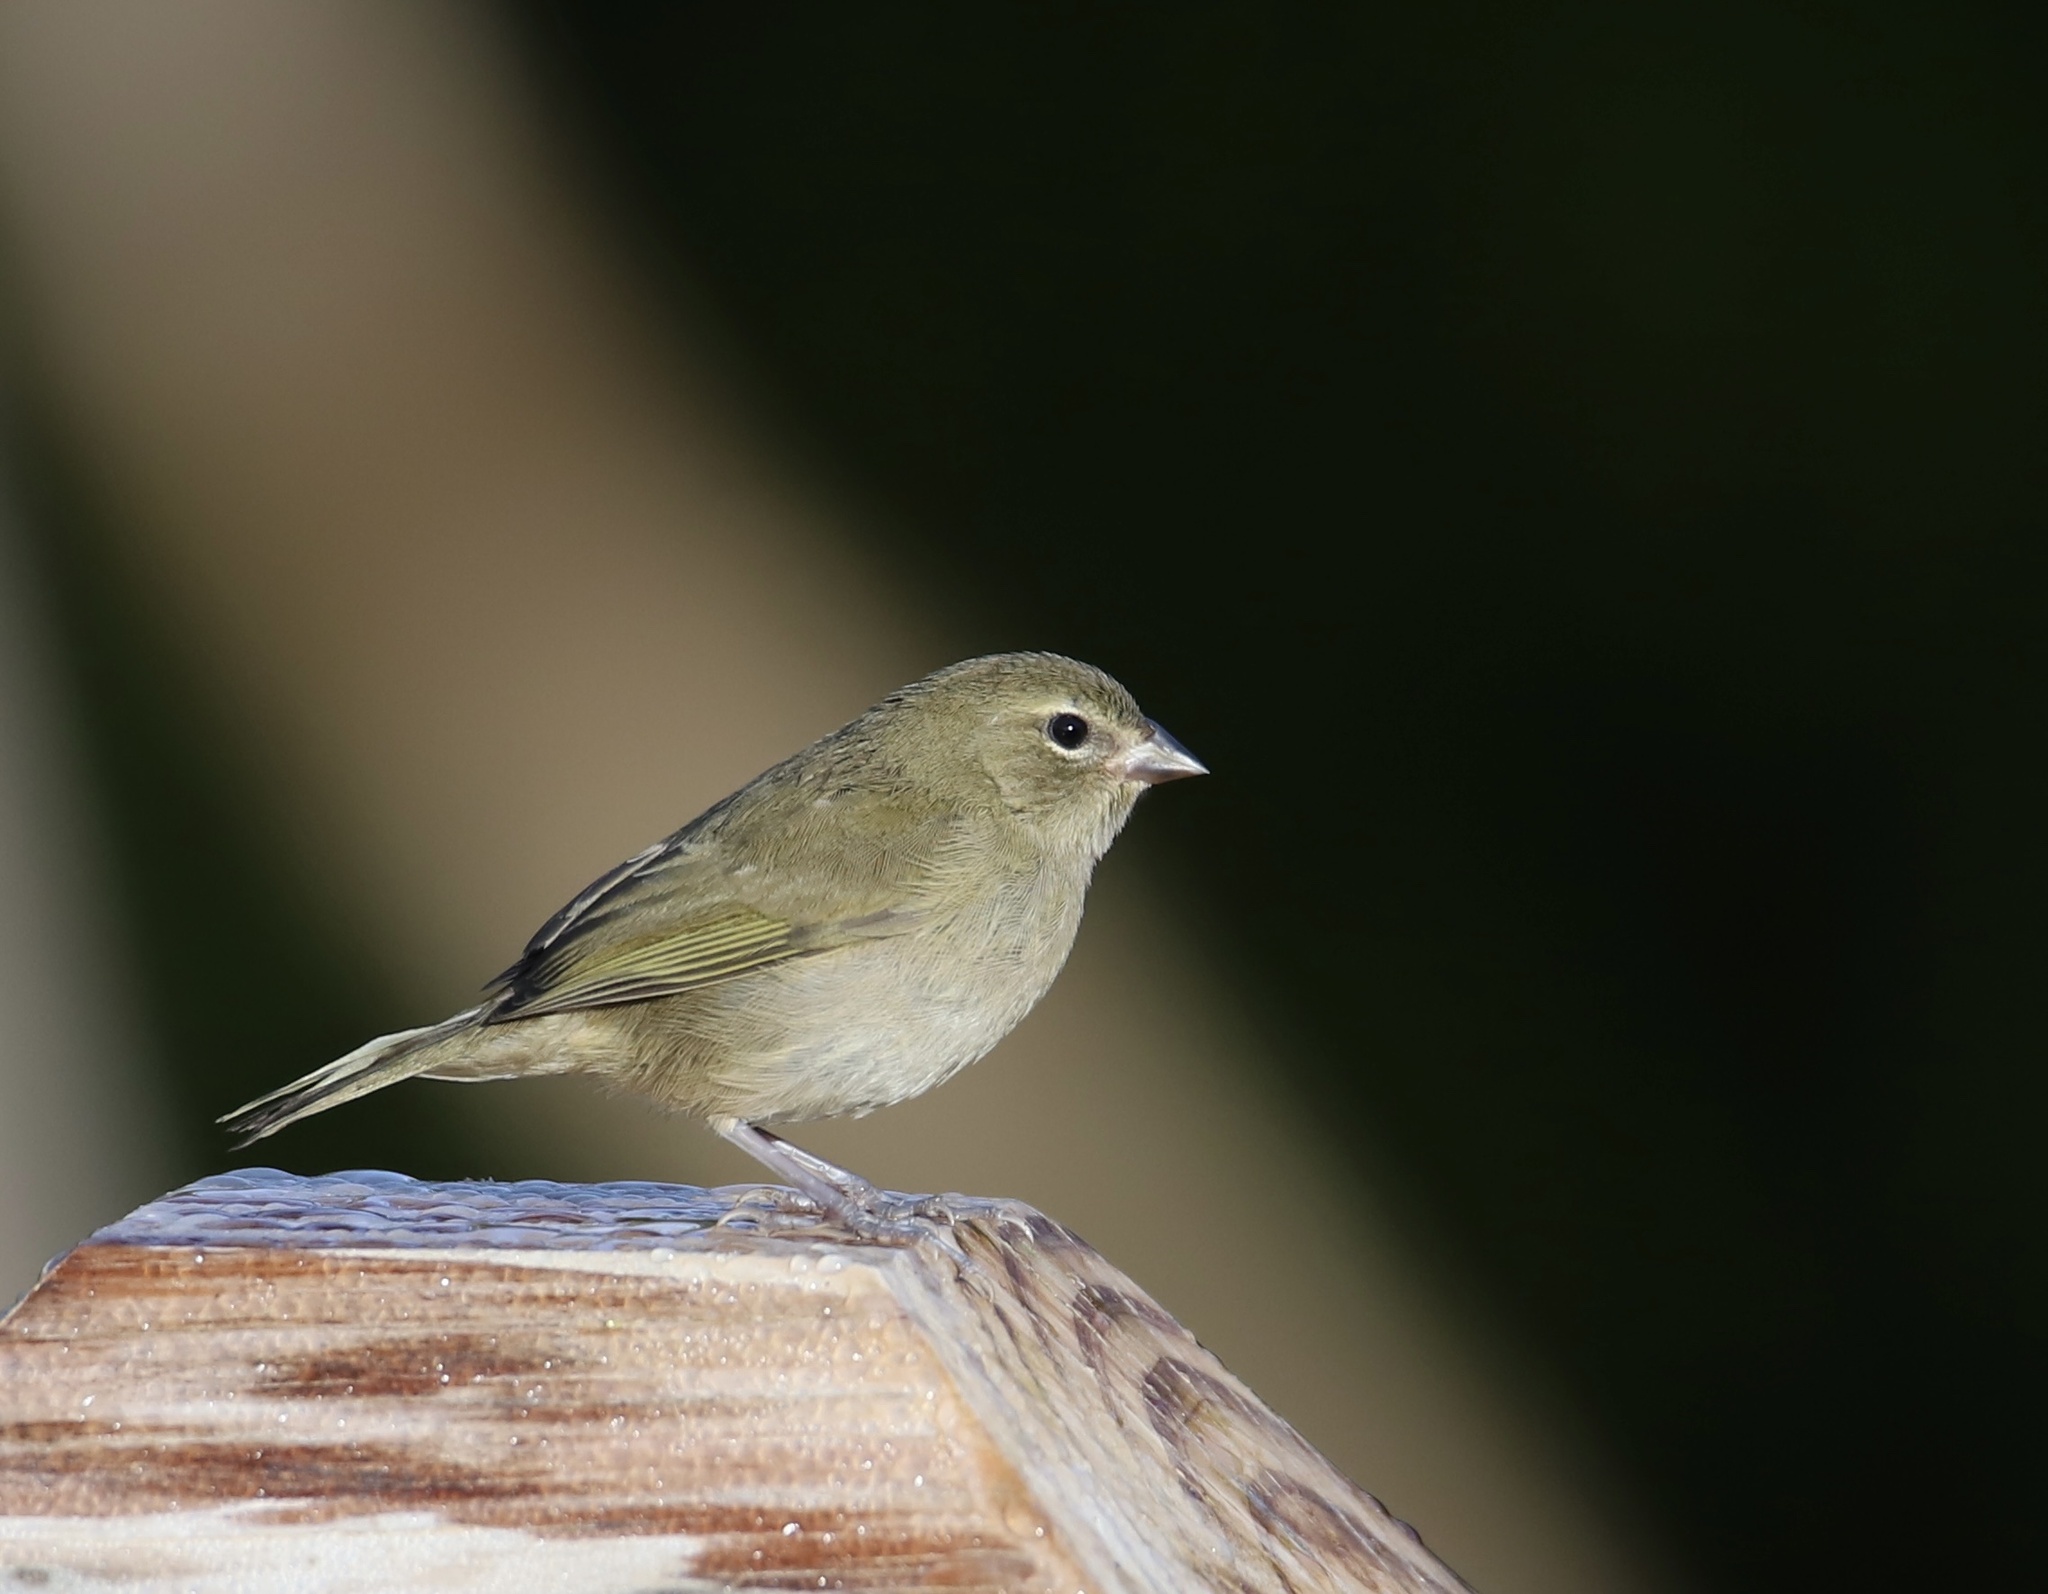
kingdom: Animalia
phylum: Chordata
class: Aves
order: Passeriformes
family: Thraupidae
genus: Tiaris
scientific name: Tiaris olivaceus
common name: Yellow-faced grassquit
